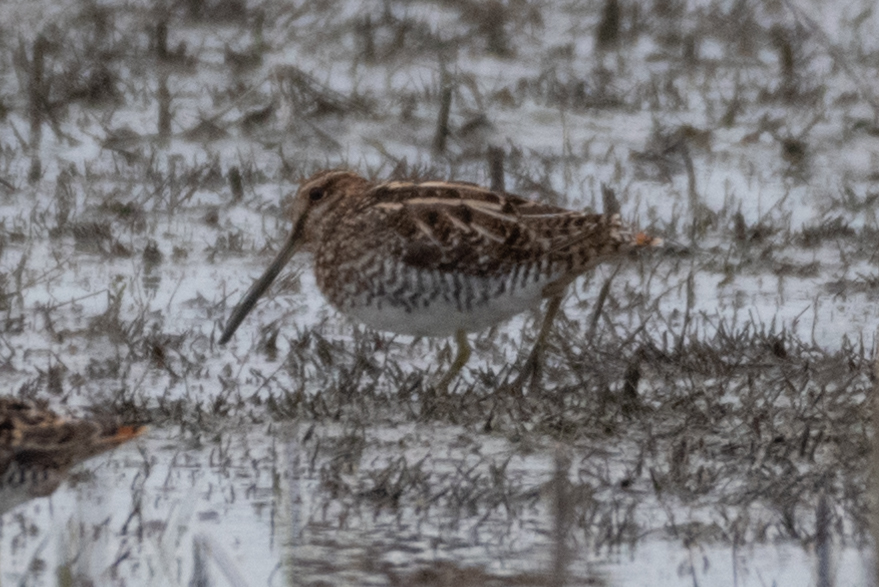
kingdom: Animalia
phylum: Chordata
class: Aves
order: Charadriiformes
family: Scolopacidae
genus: Gallinago
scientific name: Gallinago delicata
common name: Wilson's snipe
